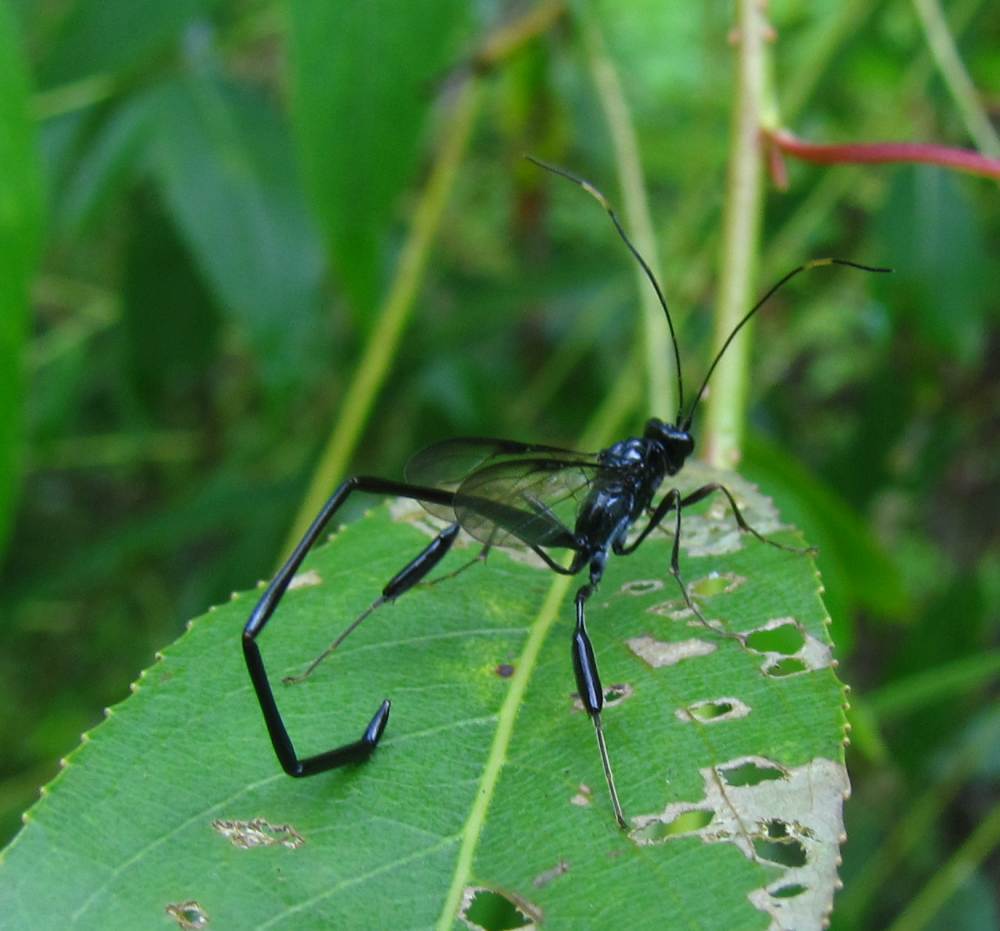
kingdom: Animalia
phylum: Arthropoda
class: Insecta
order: Hymenoptera
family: Pelecinidae
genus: Pelecinus
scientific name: Pelecinus polyturator
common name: American pelecinid wasp
